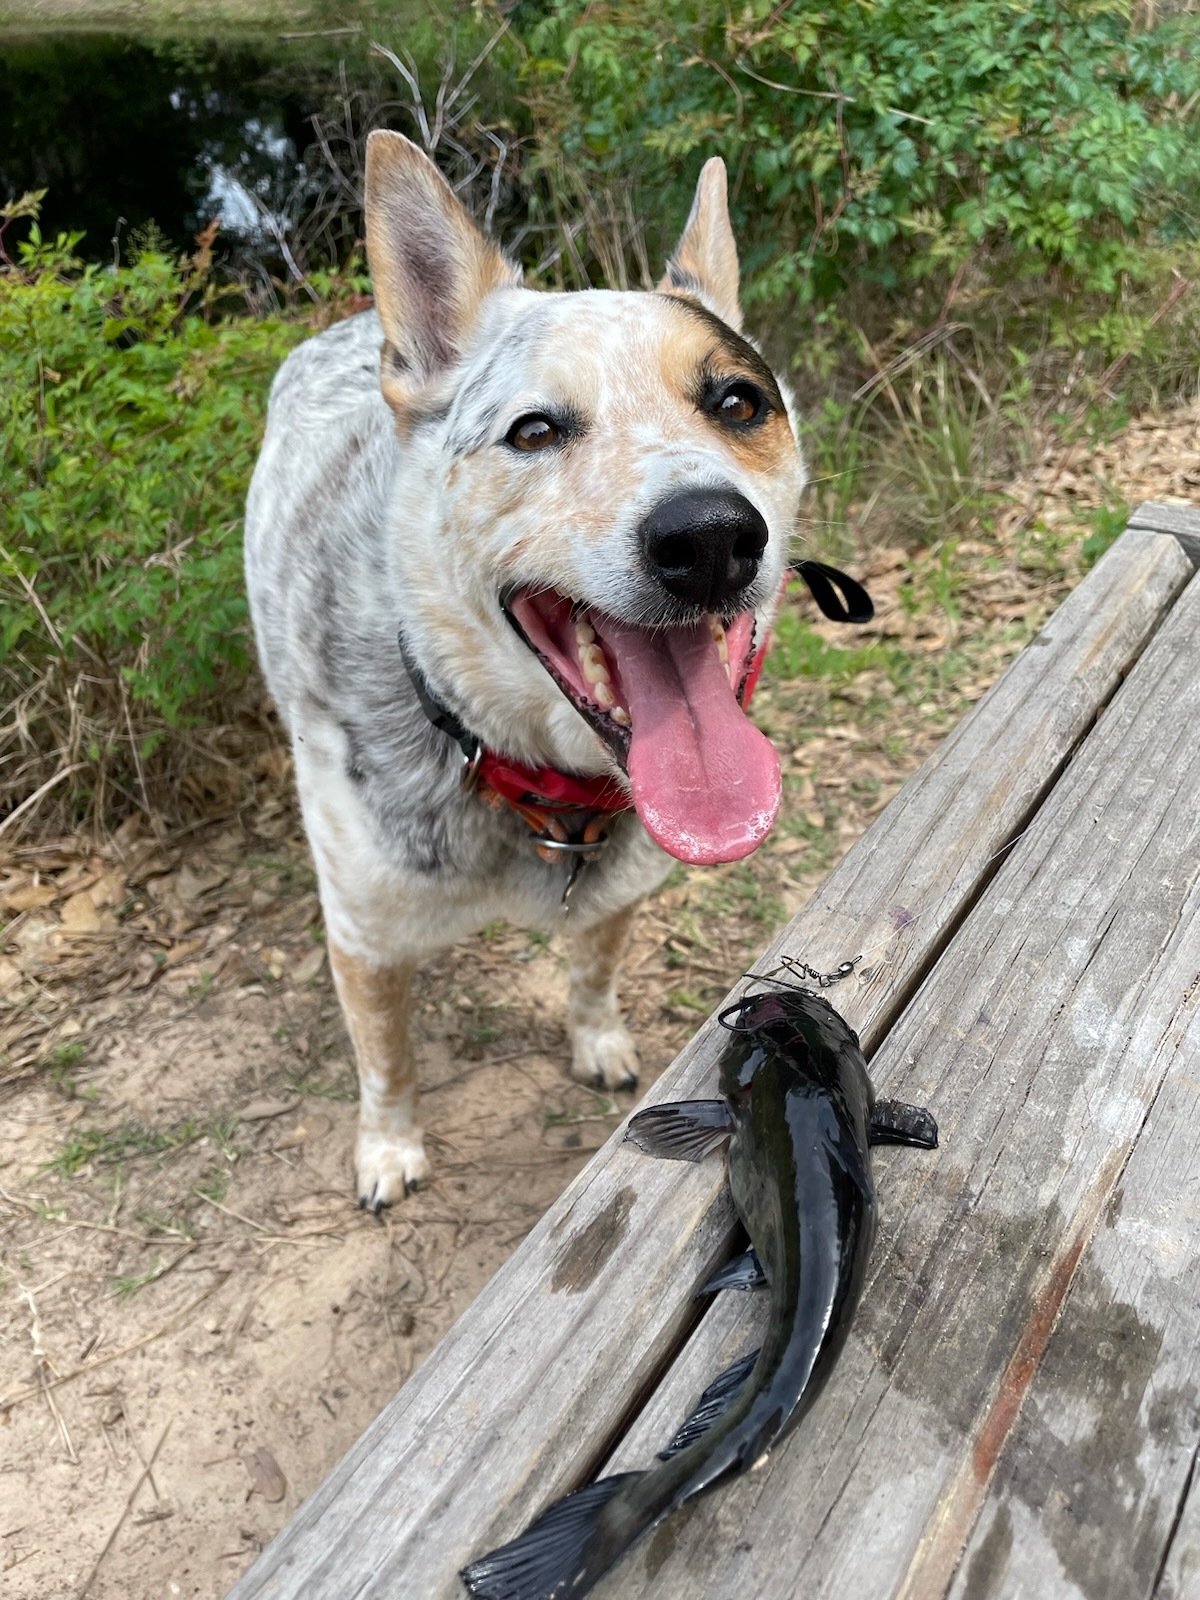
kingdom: Animalia
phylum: Chordata
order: Siluriformes
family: Ictaluridae
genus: Ameiurus
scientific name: Ameiurus melas
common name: Black bullhead
